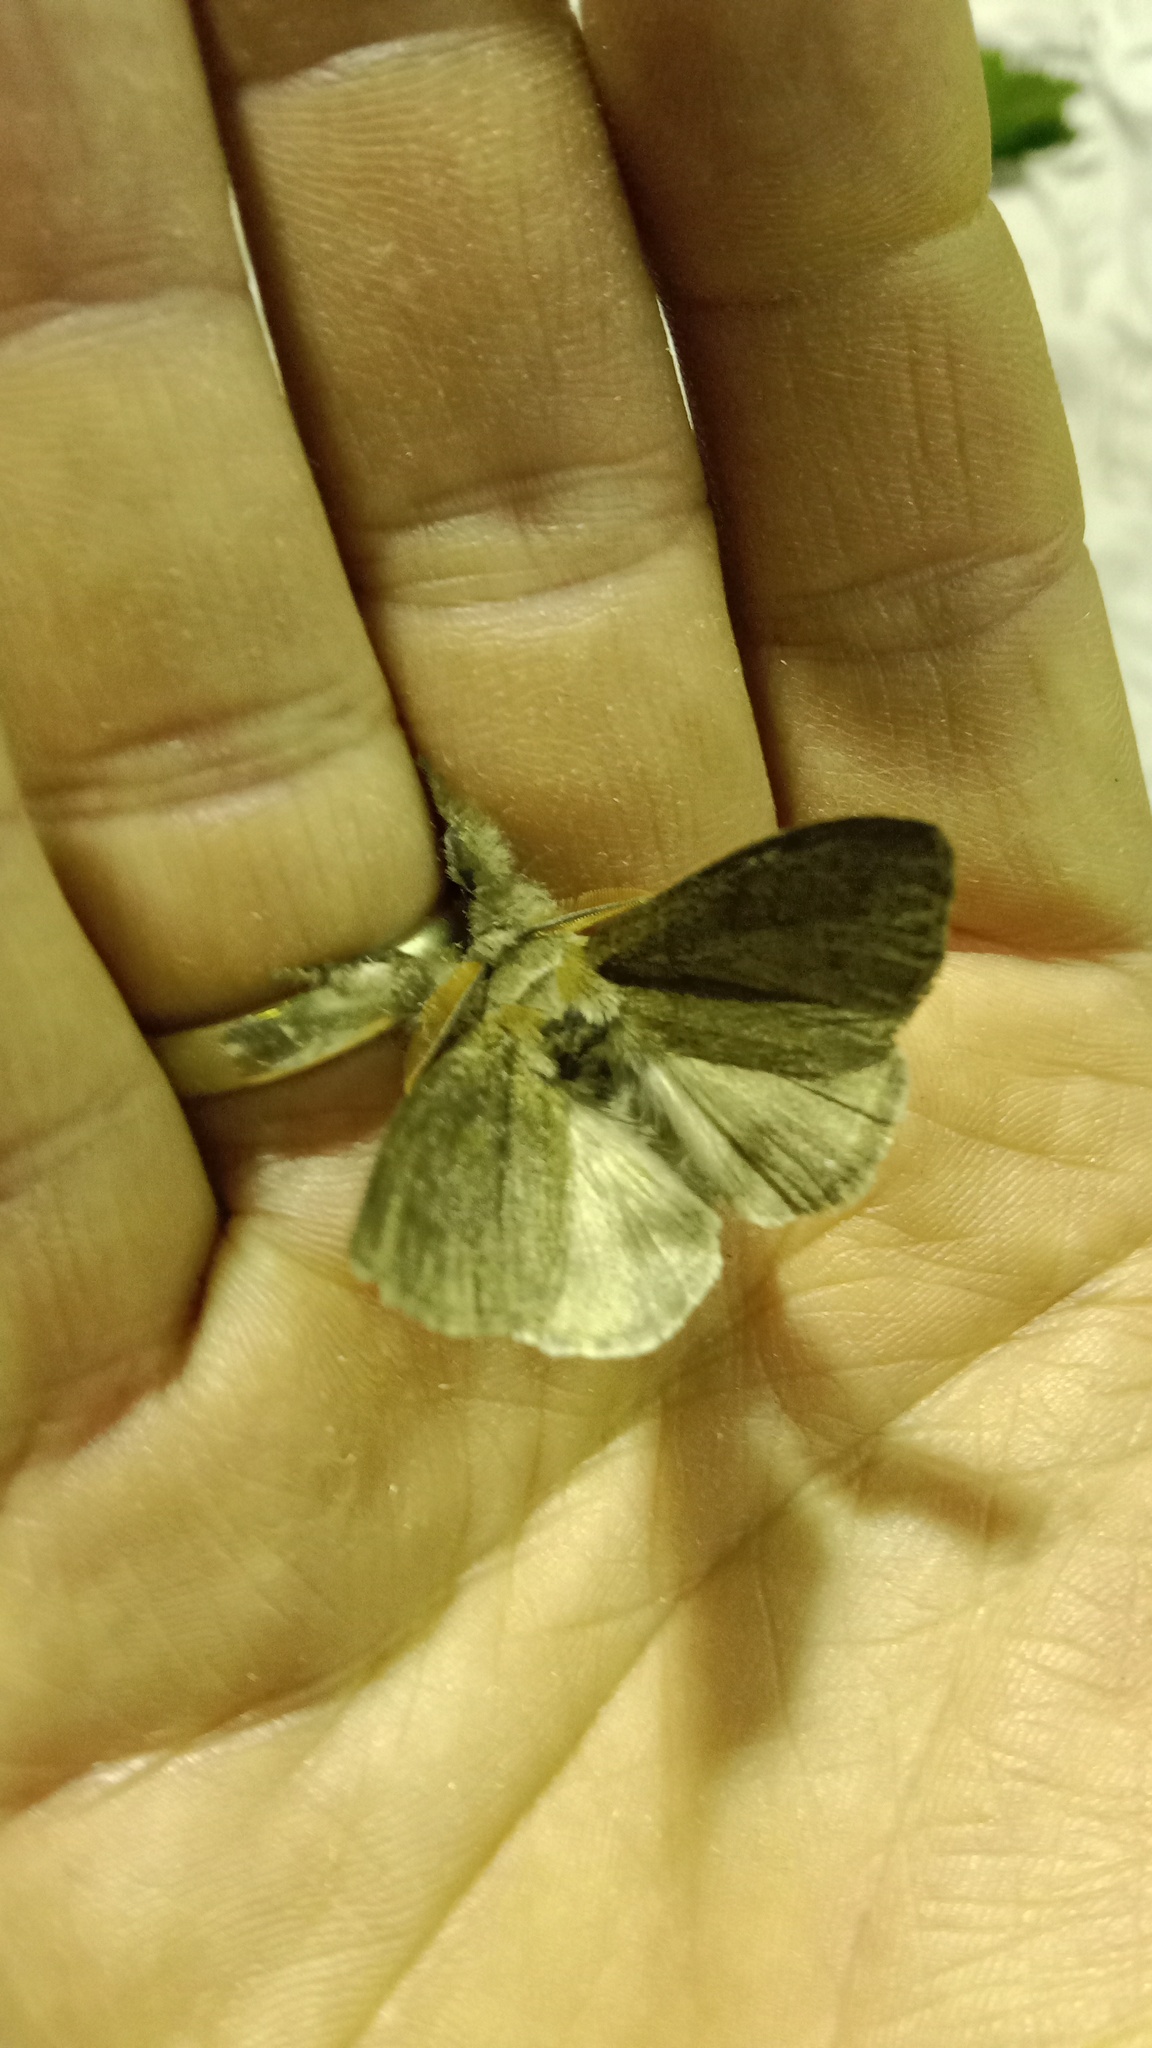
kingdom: Animalia
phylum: Arthropoda
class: Insecta
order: Lepidoptera
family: Erebidae
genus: Calliteara
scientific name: Calliteara pudibunda
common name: Pale tussock
